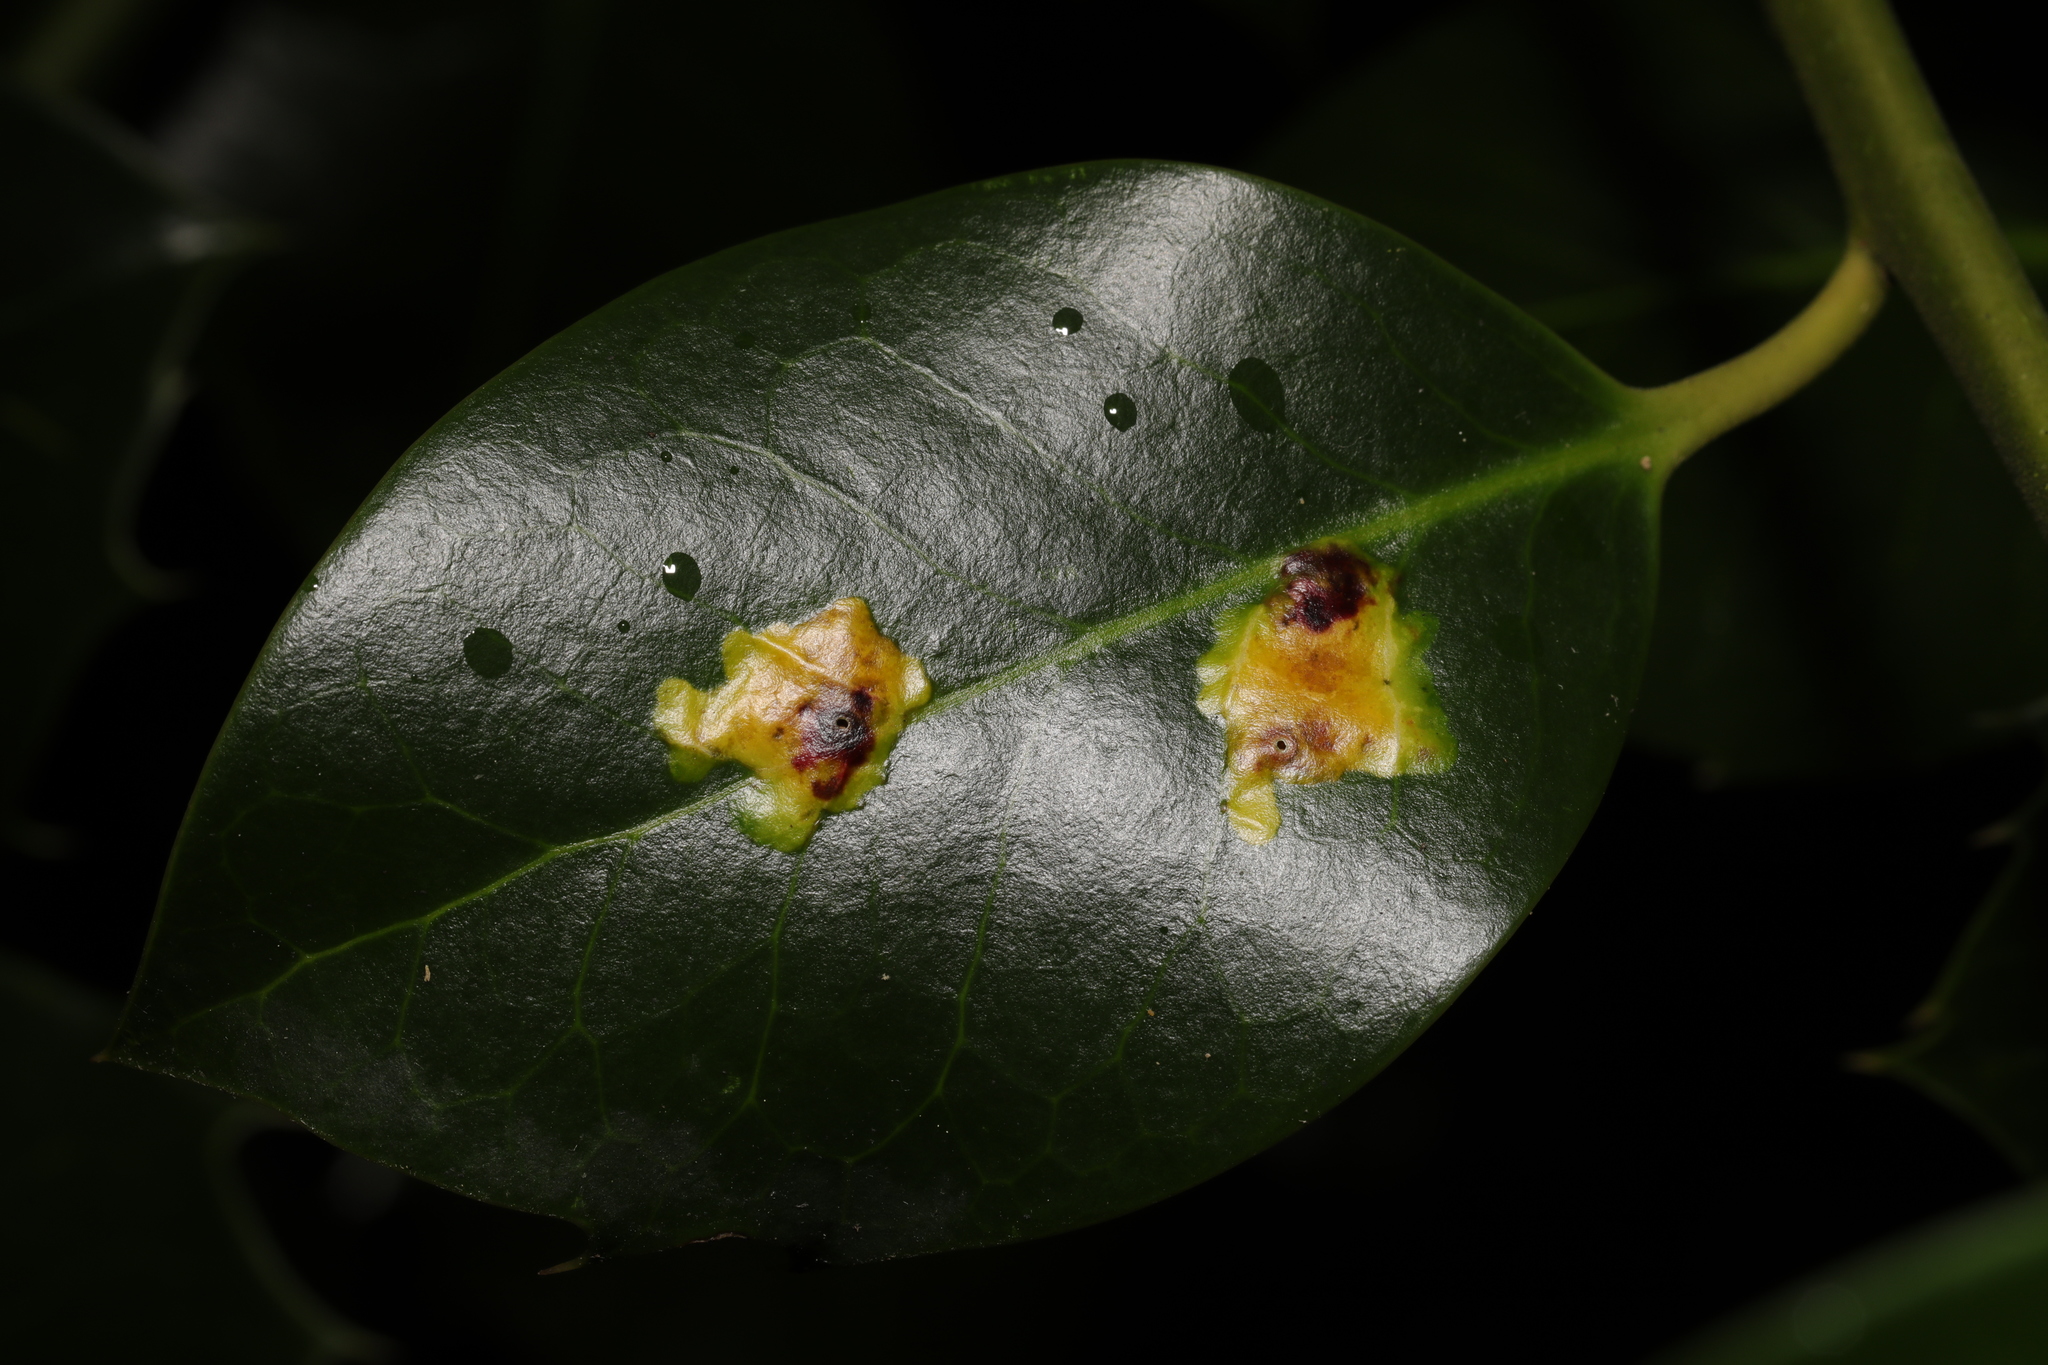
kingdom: Animalia
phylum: Arthropoda
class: Insecta
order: Diptera
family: Agromyzidae
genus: Phytomyza
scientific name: Phytomyza ilicis
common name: Holly leafminer
